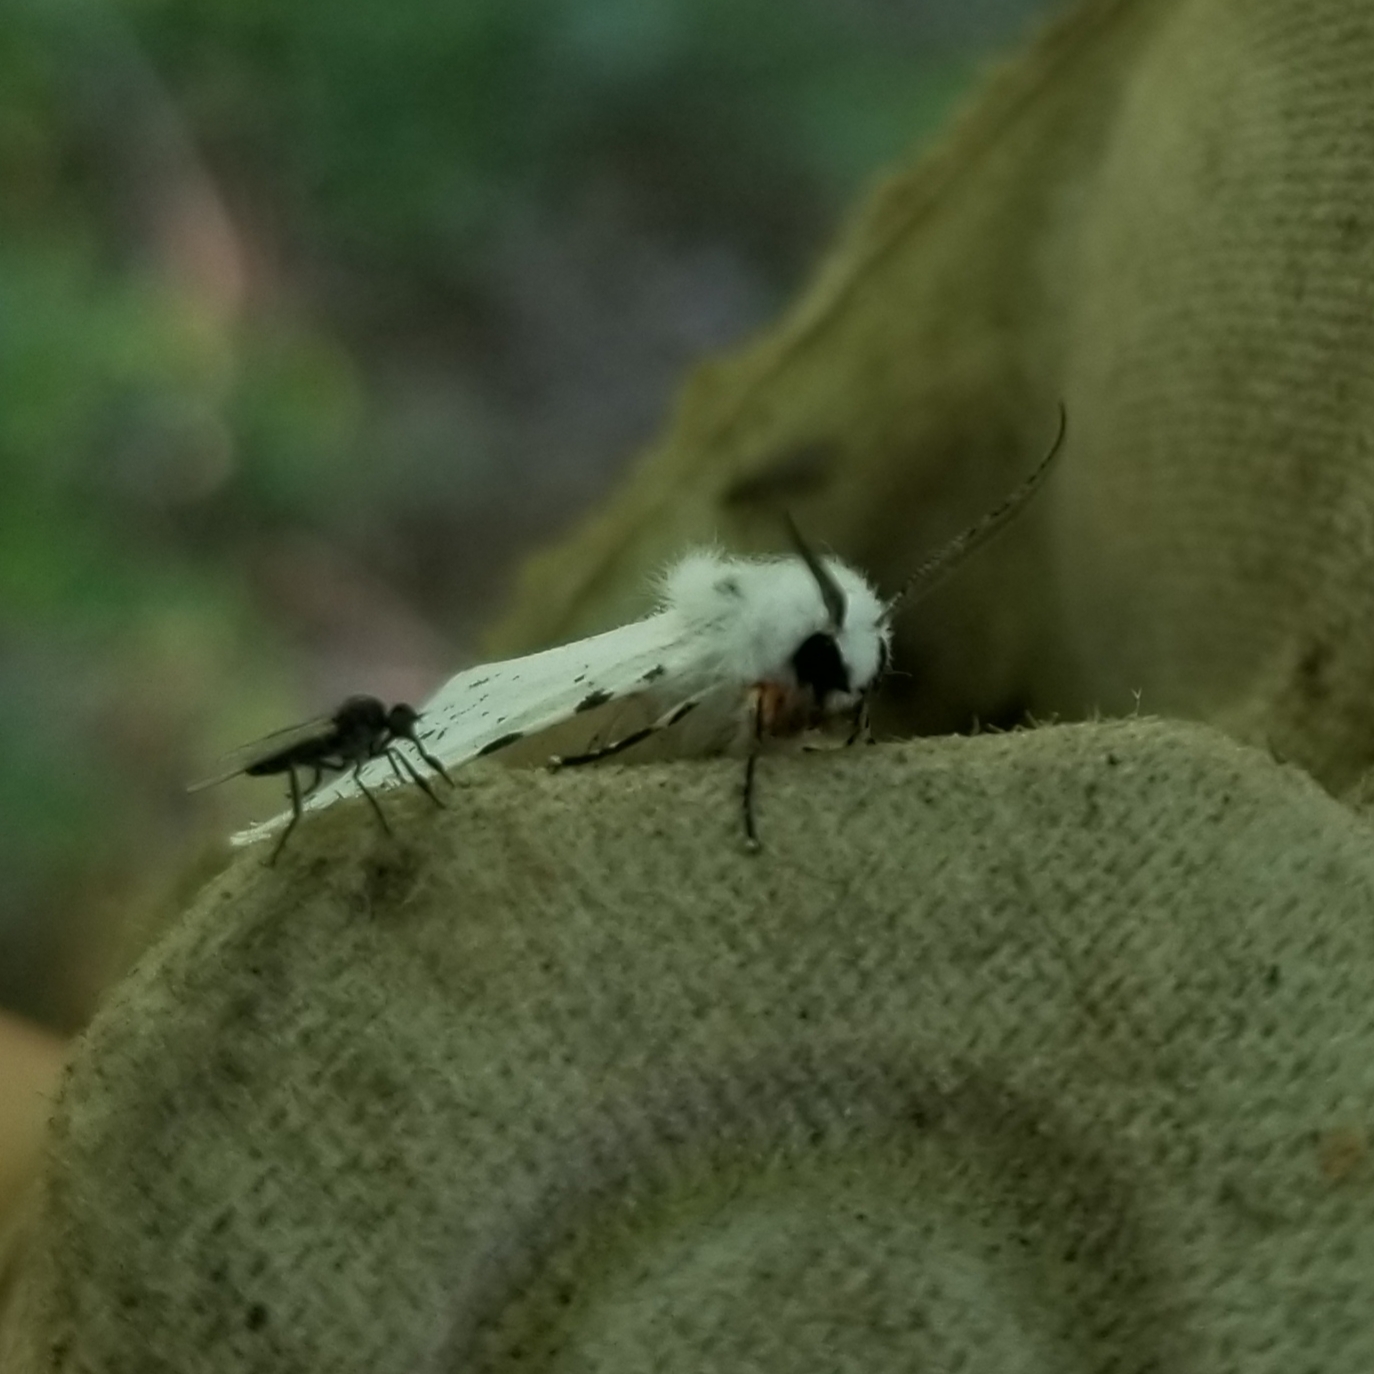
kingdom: Animalia
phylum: Arthropoda
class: Insecta
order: Lepidoptera
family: Erebidae
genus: Hyphantria
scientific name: Hyphantria cunea
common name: American white moth
